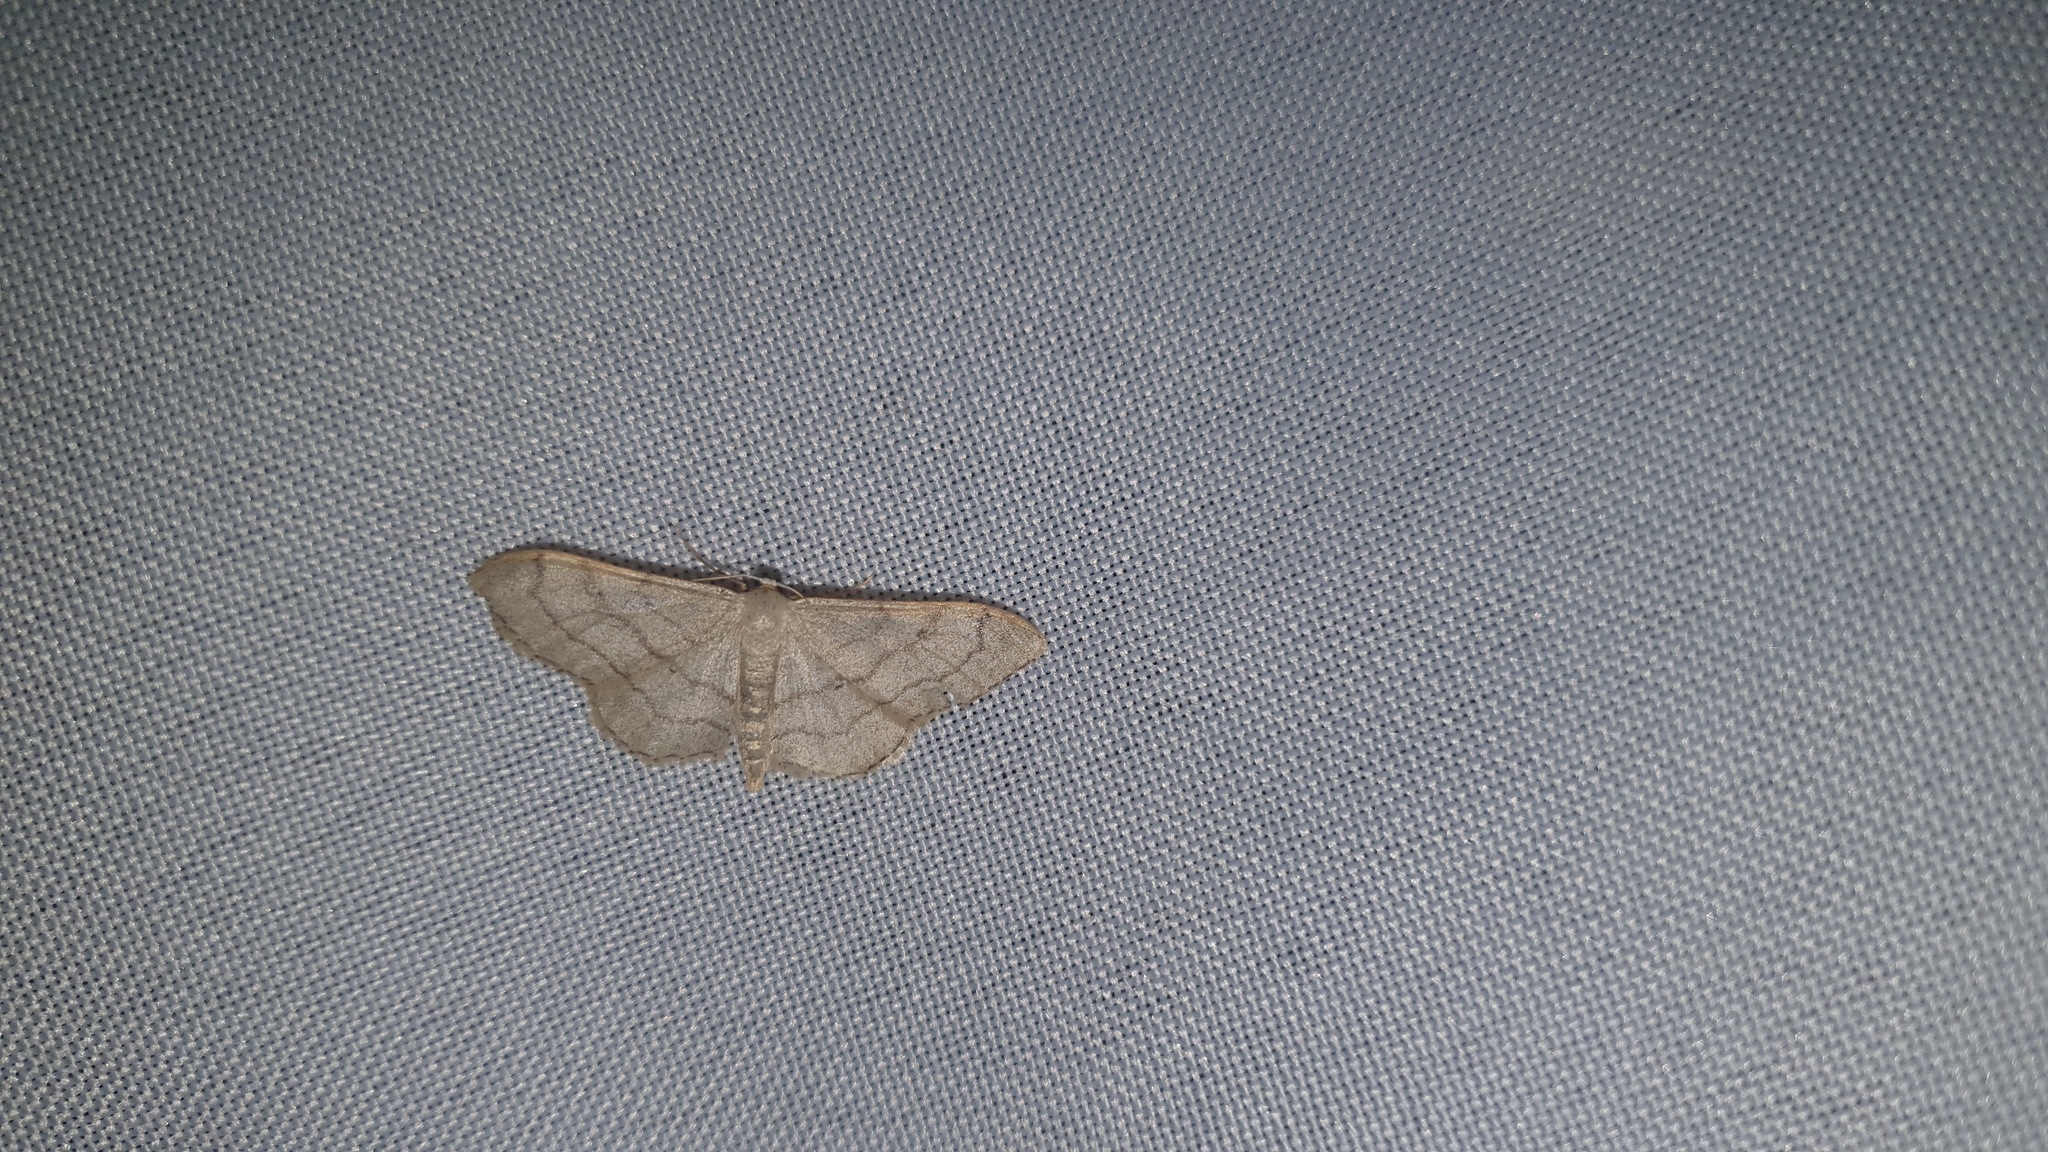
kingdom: Animalia
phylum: Arthropoda
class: Insecta
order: Lepidoptera
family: Geometridae
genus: Idaea
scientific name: Idaea aversata
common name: Riband wave
